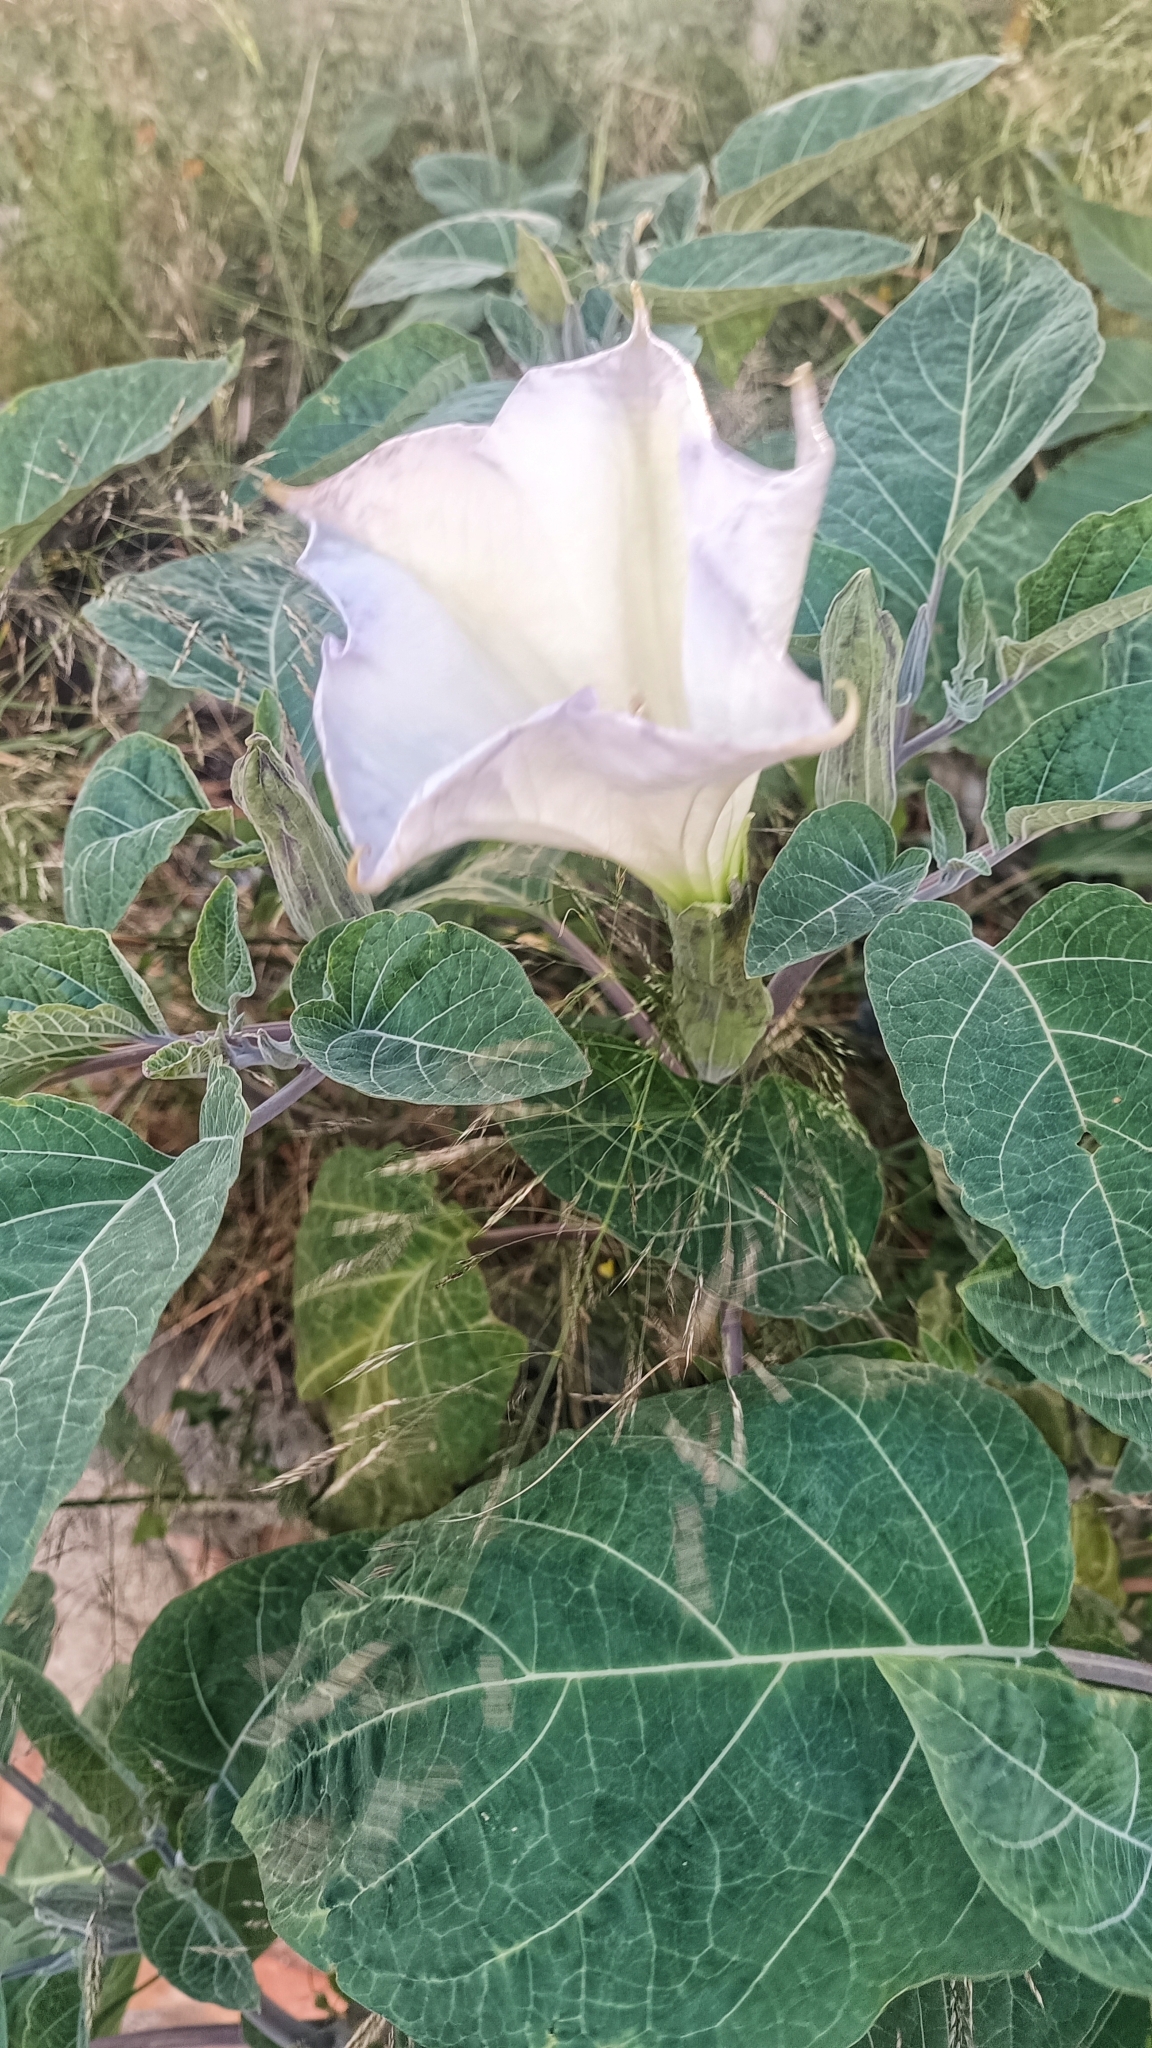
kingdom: Plantae
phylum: Tracheophyta
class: Magnoliopsida
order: Solanales
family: Solanaceae
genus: Datura
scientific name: Datura wrightii
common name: Sacred thorn-apple
